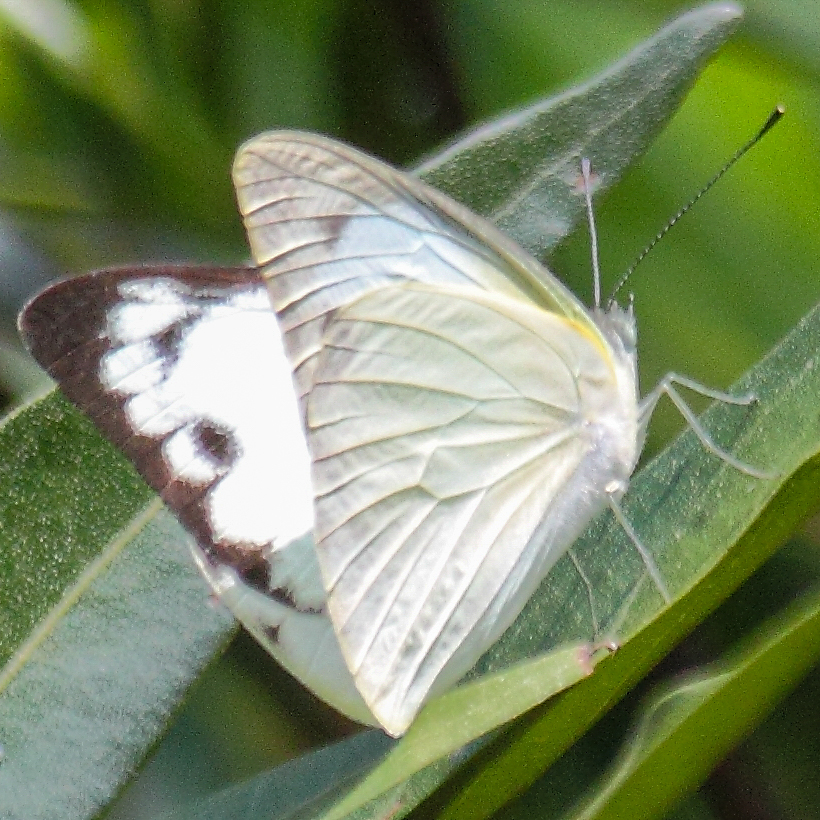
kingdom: Animalia
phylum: Arthropoda
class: Insecta
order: Lepidoptera
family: Pieridae
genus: Appias
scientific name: Appias albina
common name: Common albatross
